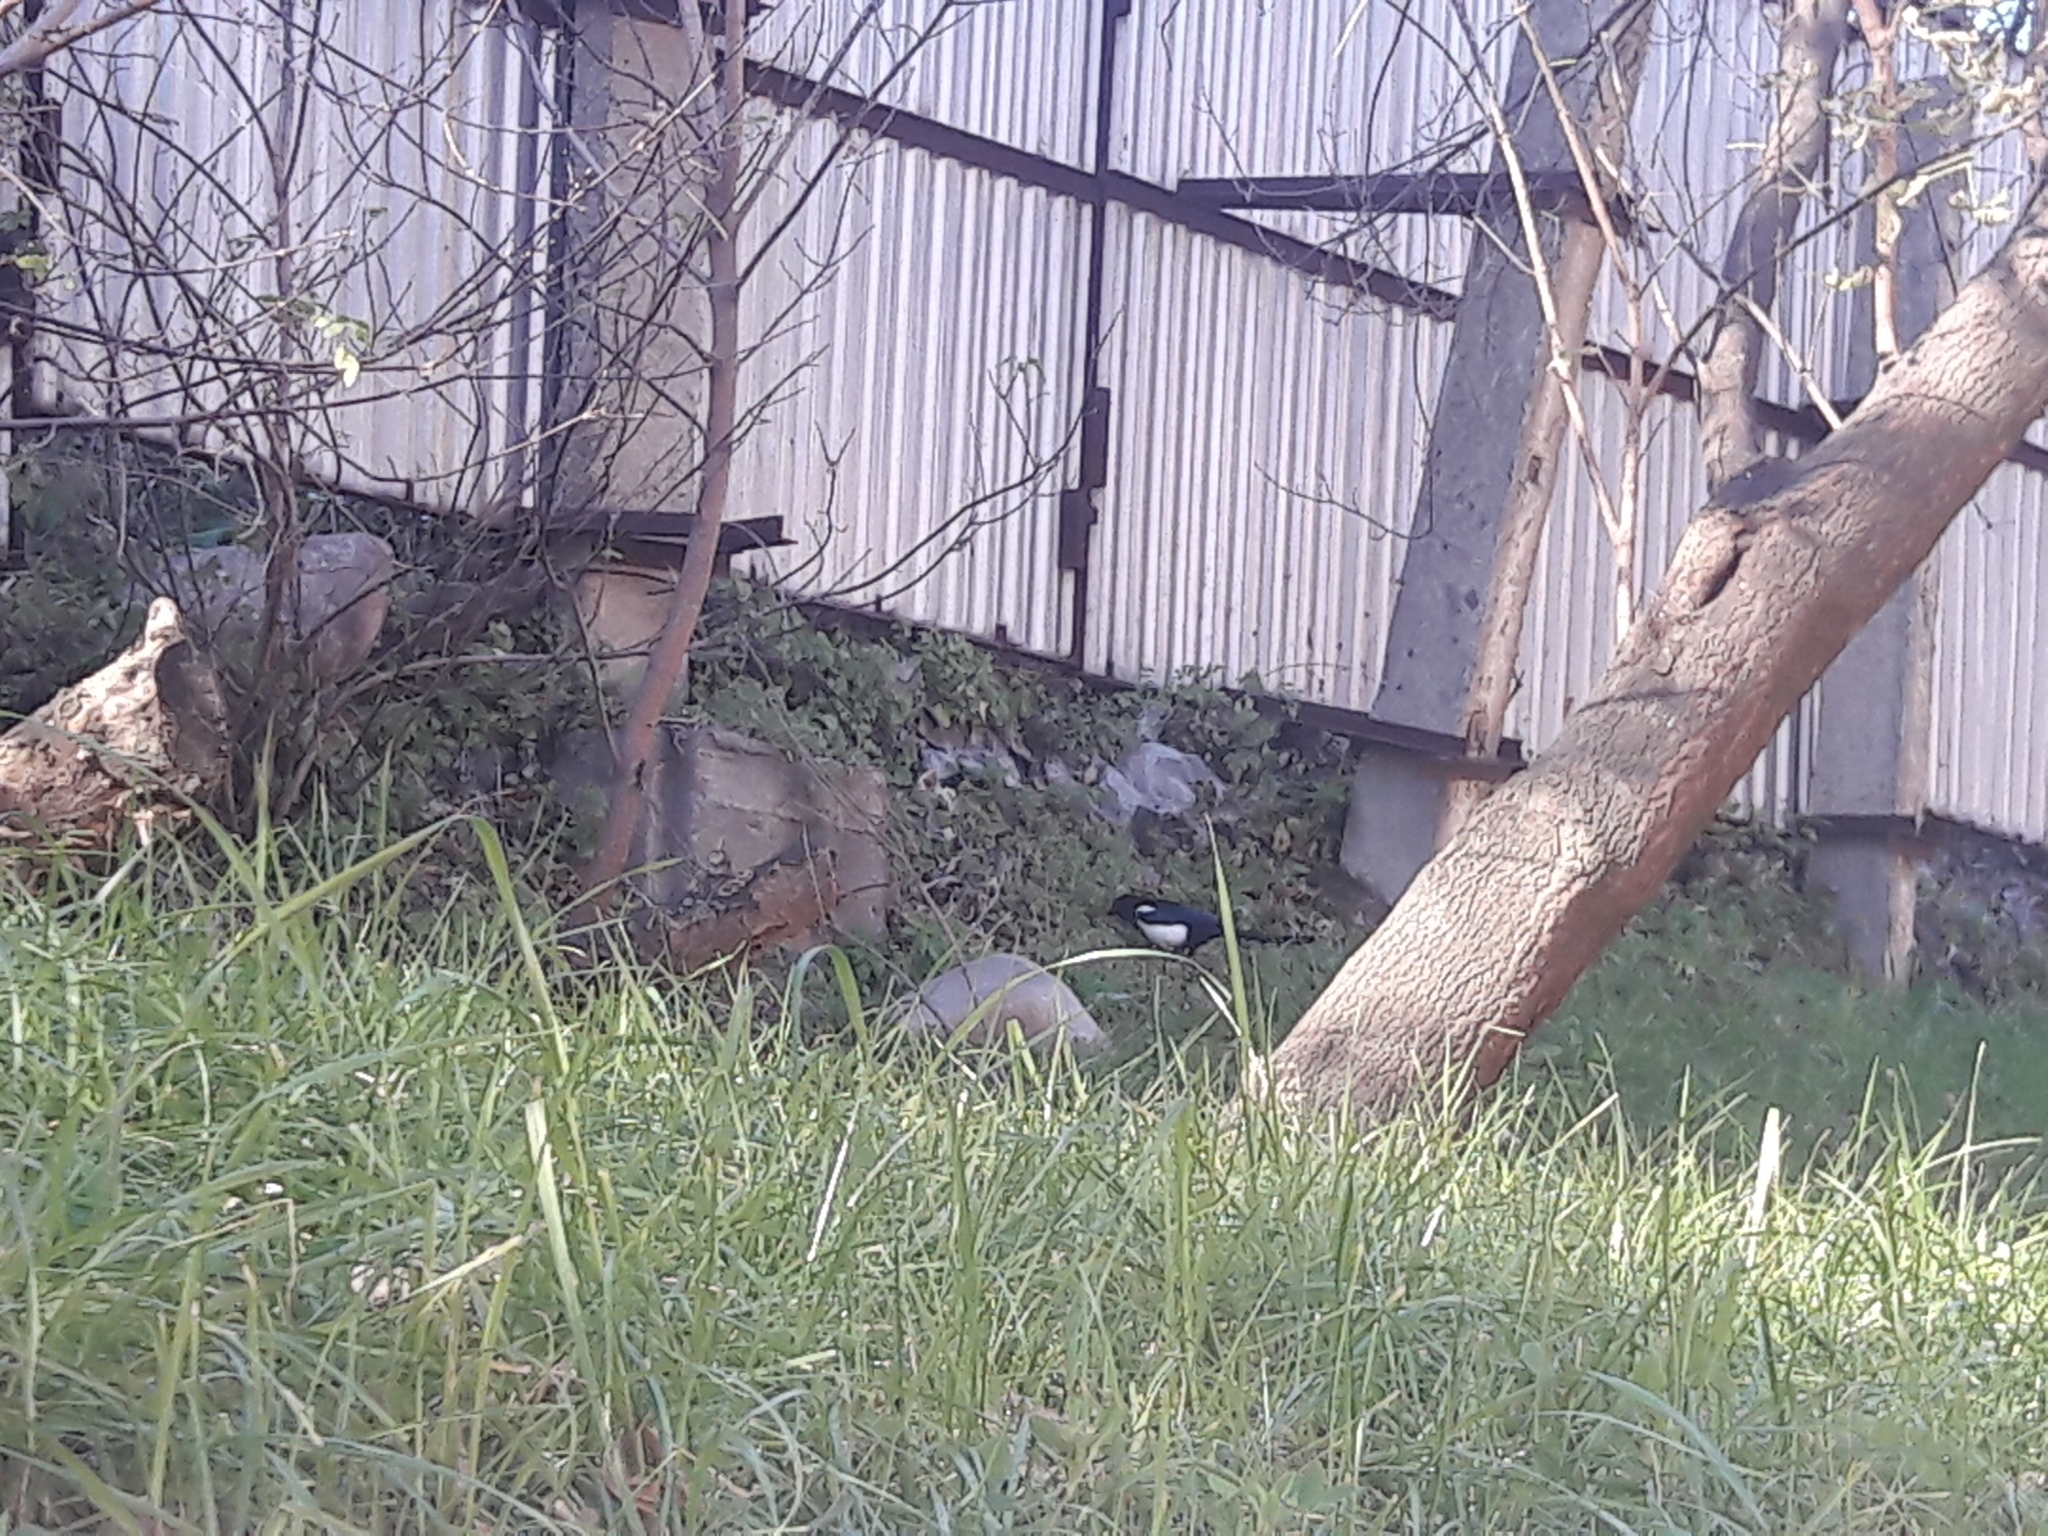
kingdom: Animalia
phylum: Chordata
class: Aves
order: Passeriformes
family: Corvidae
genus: Pica
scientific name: Pica serica
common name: Oriental magpie
